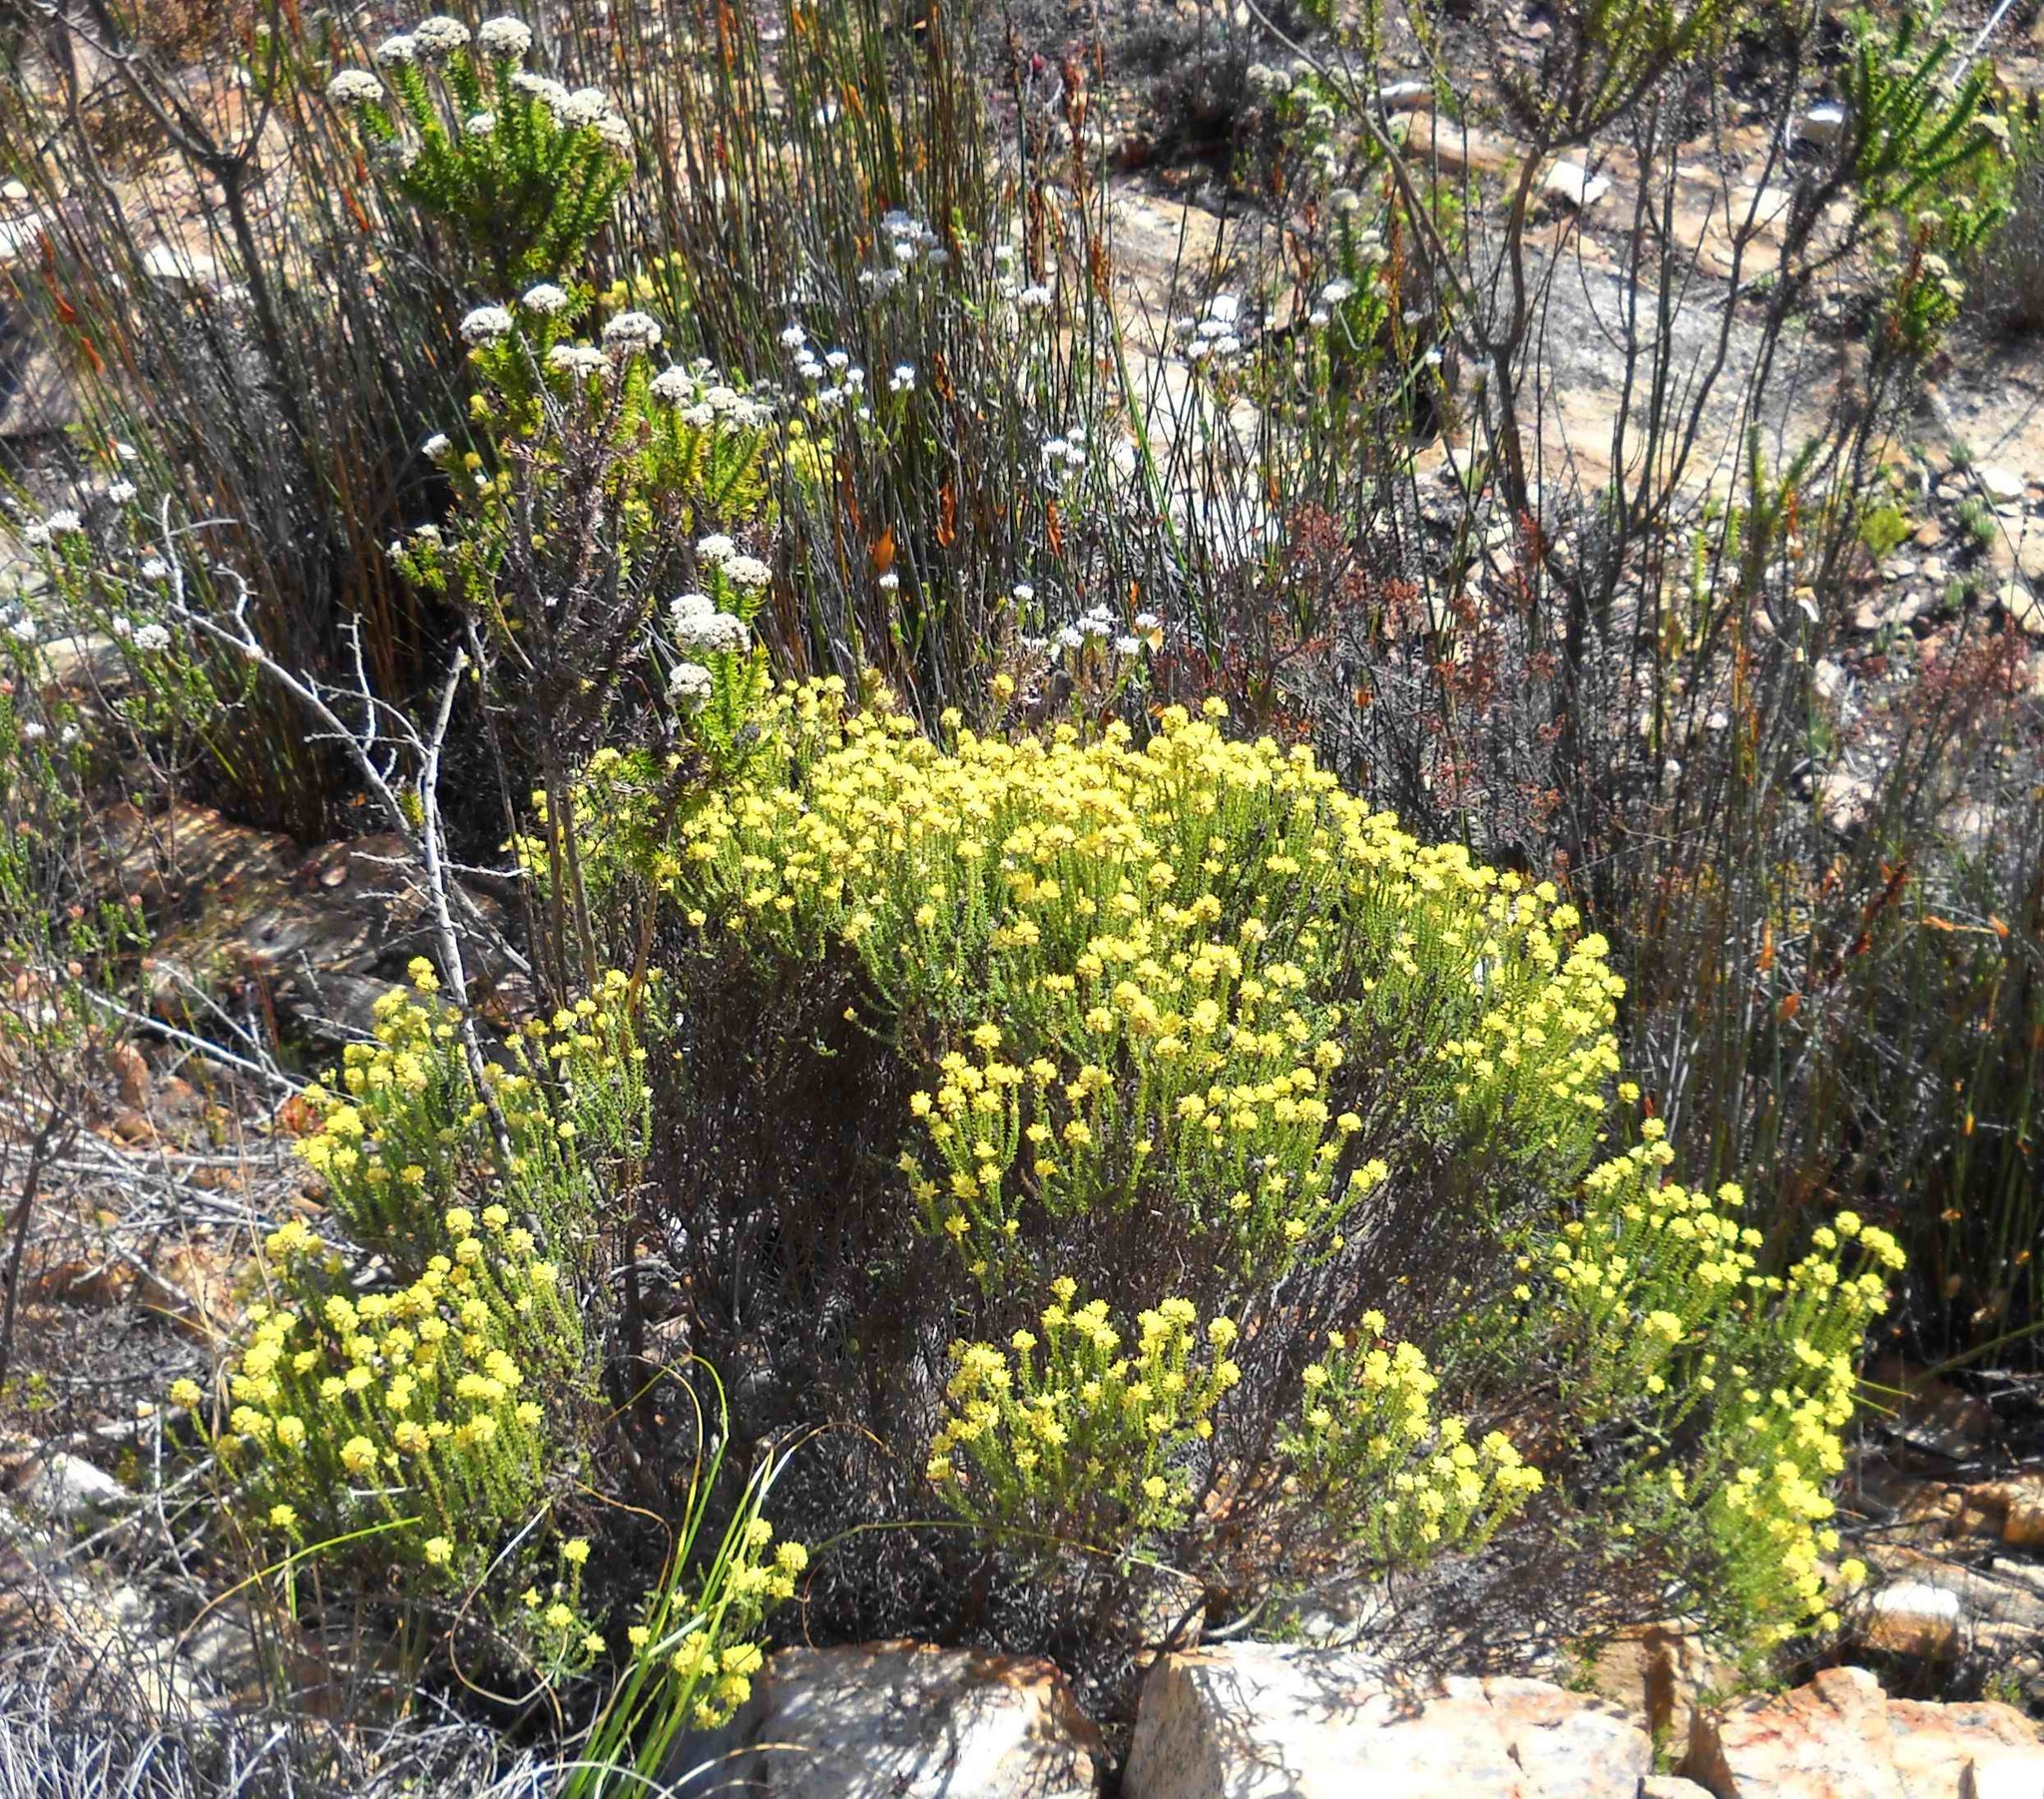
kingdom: Plantae
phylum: Tracheophyta
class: Magnoliopsida
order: Asterales
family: Asteraceae
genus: Seriphium
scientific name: Seriphium spirale
